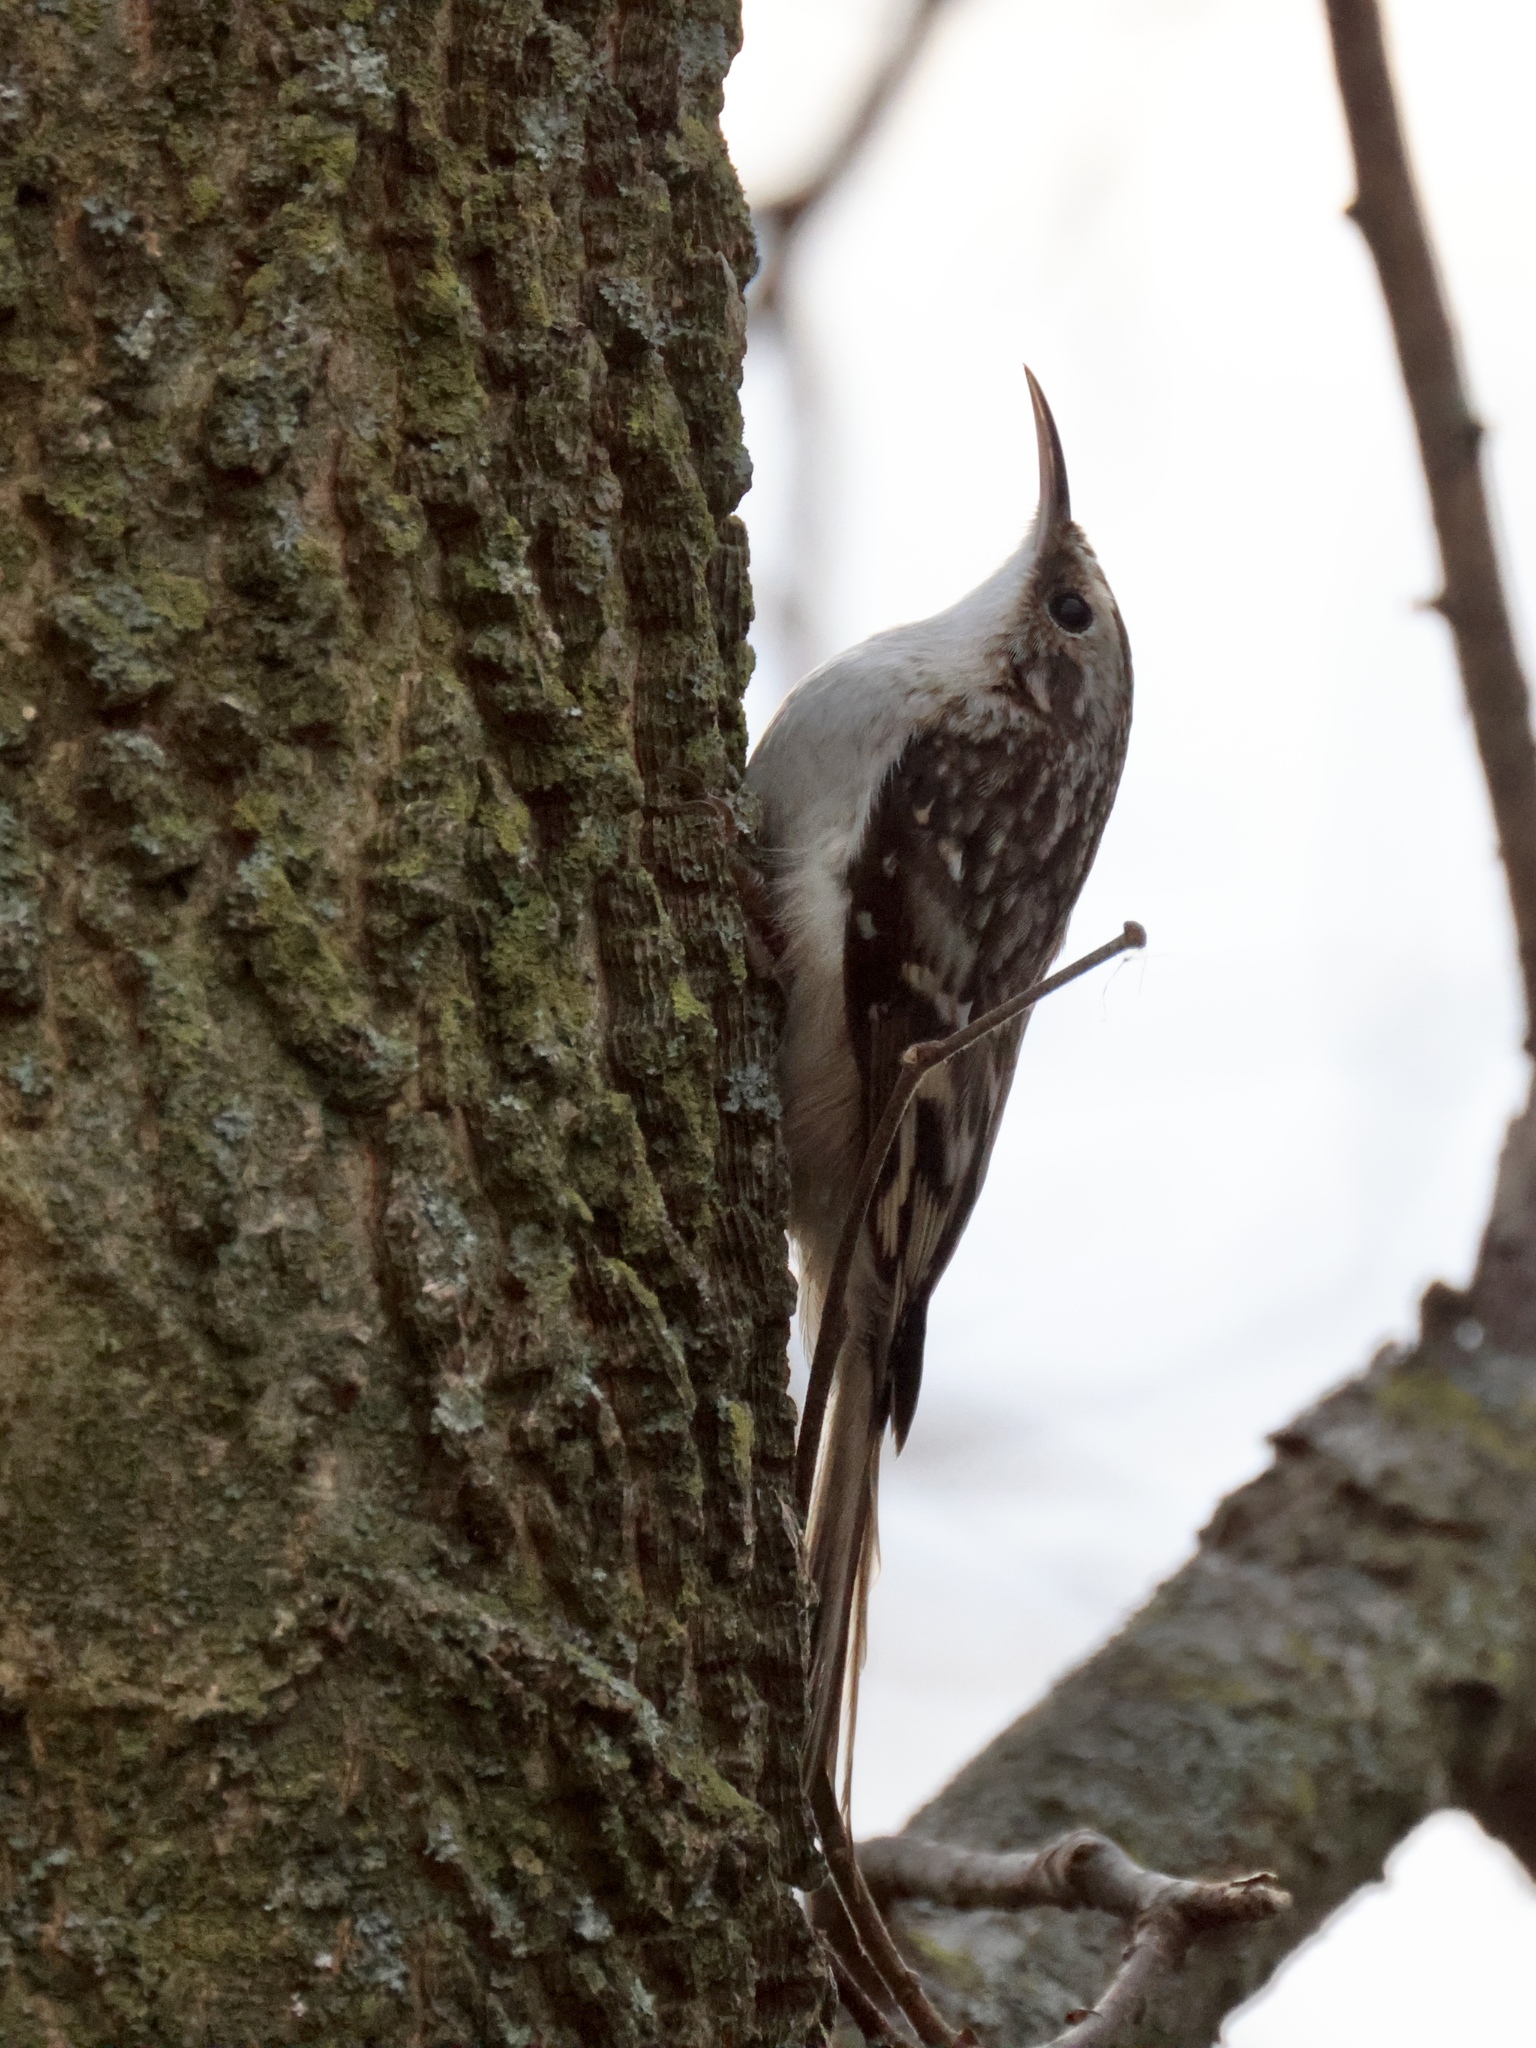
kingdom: Animalia
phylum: Chordata
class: Aves
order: Passeriformes
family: Certhiidae
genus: Certhia
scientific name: Certhia americana
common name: Brown creeper
